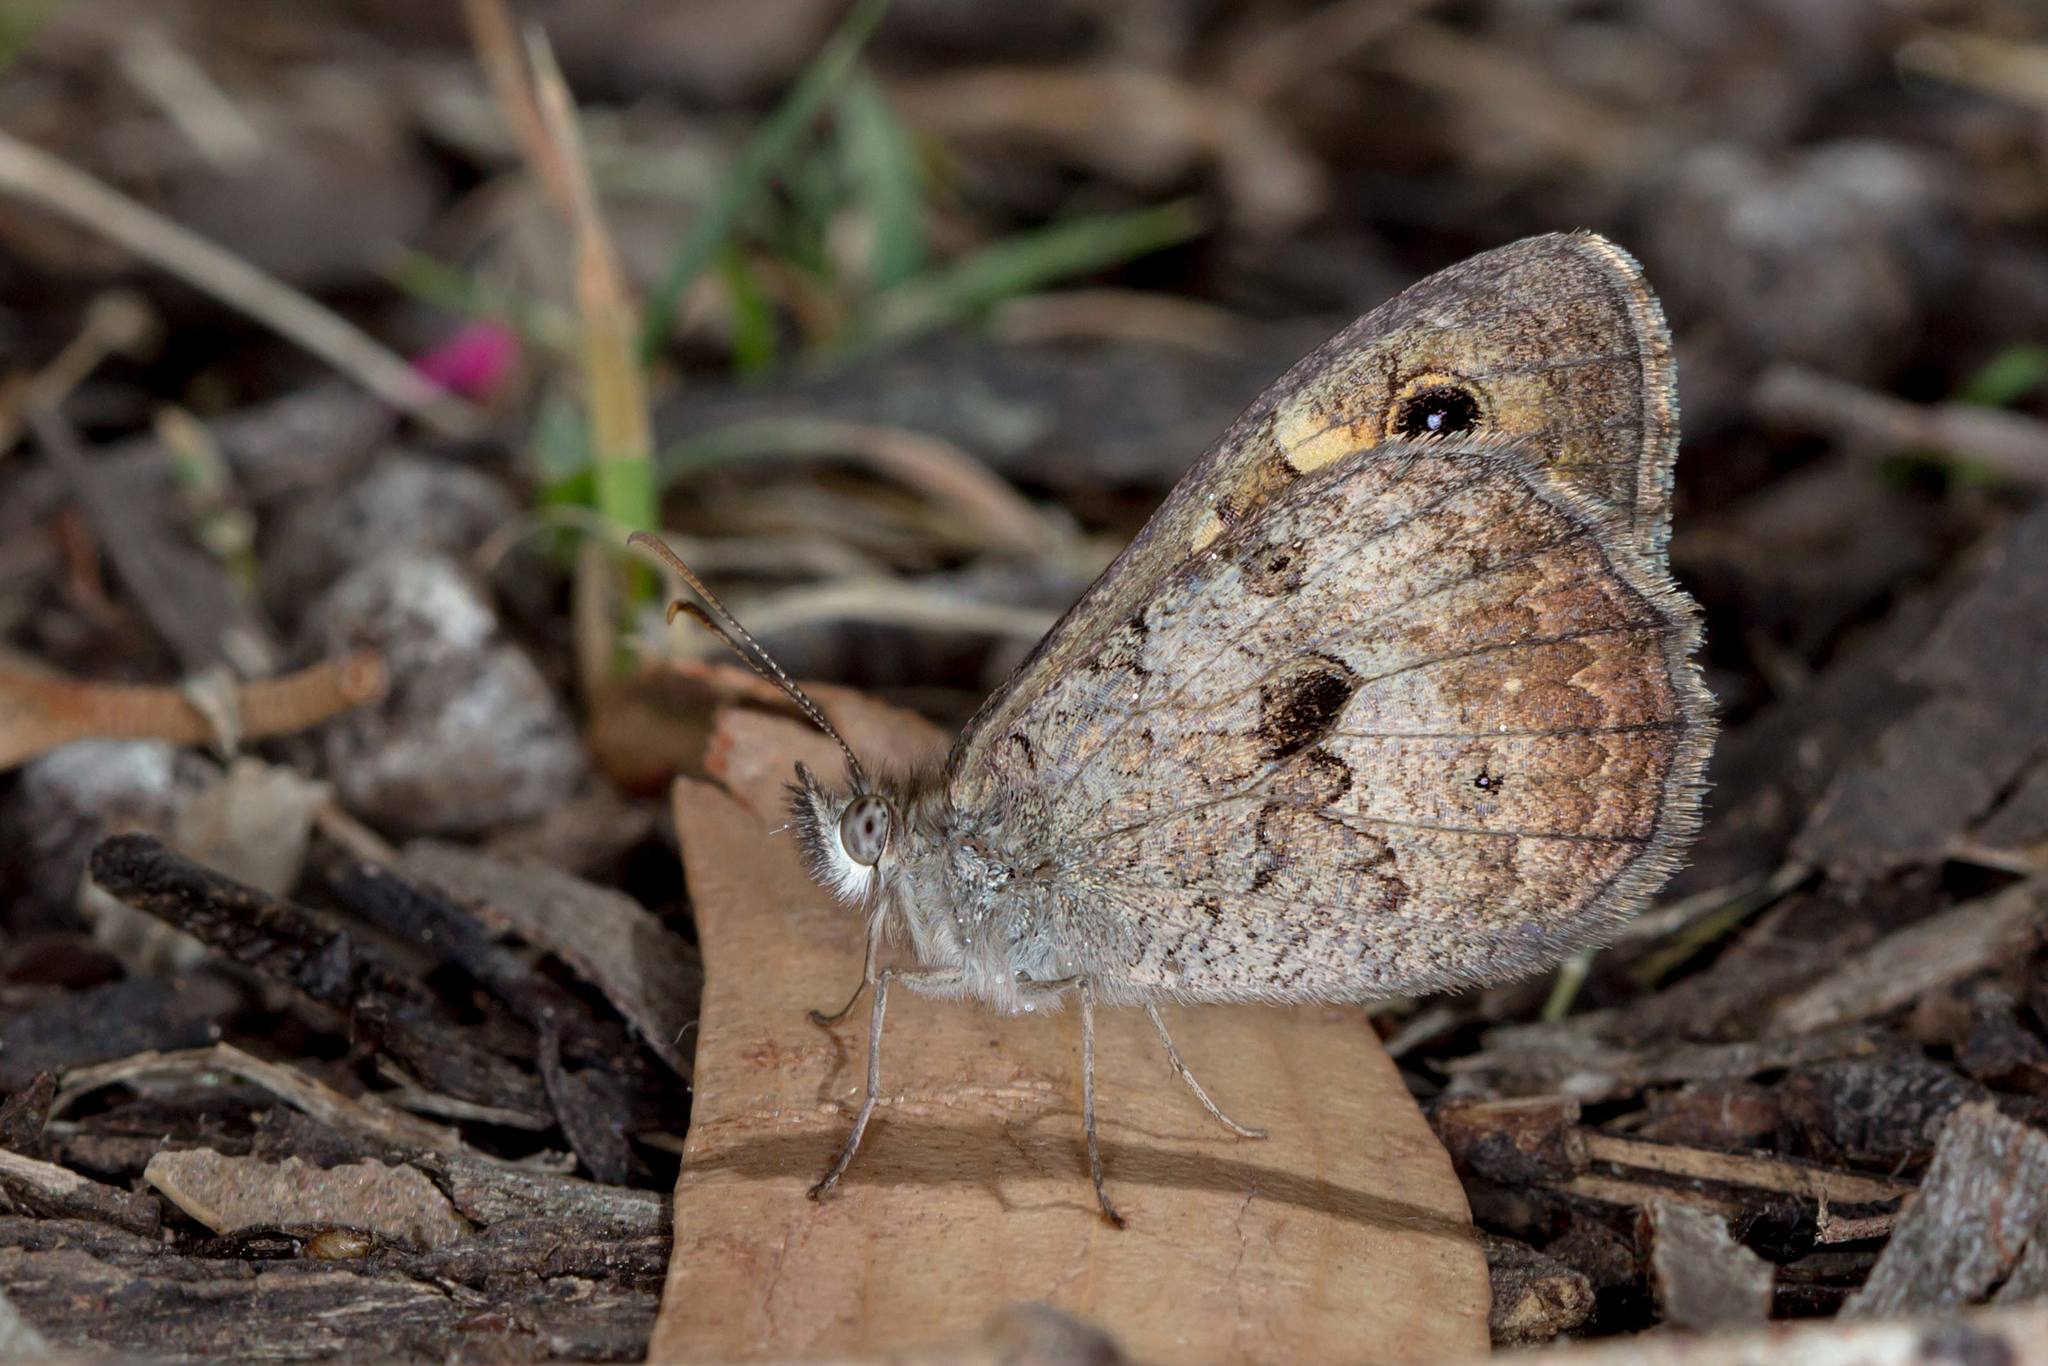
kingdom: Animalia
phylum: Arthropoda
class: Insecta
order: Lepidoptera
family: Nymphalidae
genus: Geitoneura
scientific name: Geitoneura klugii
